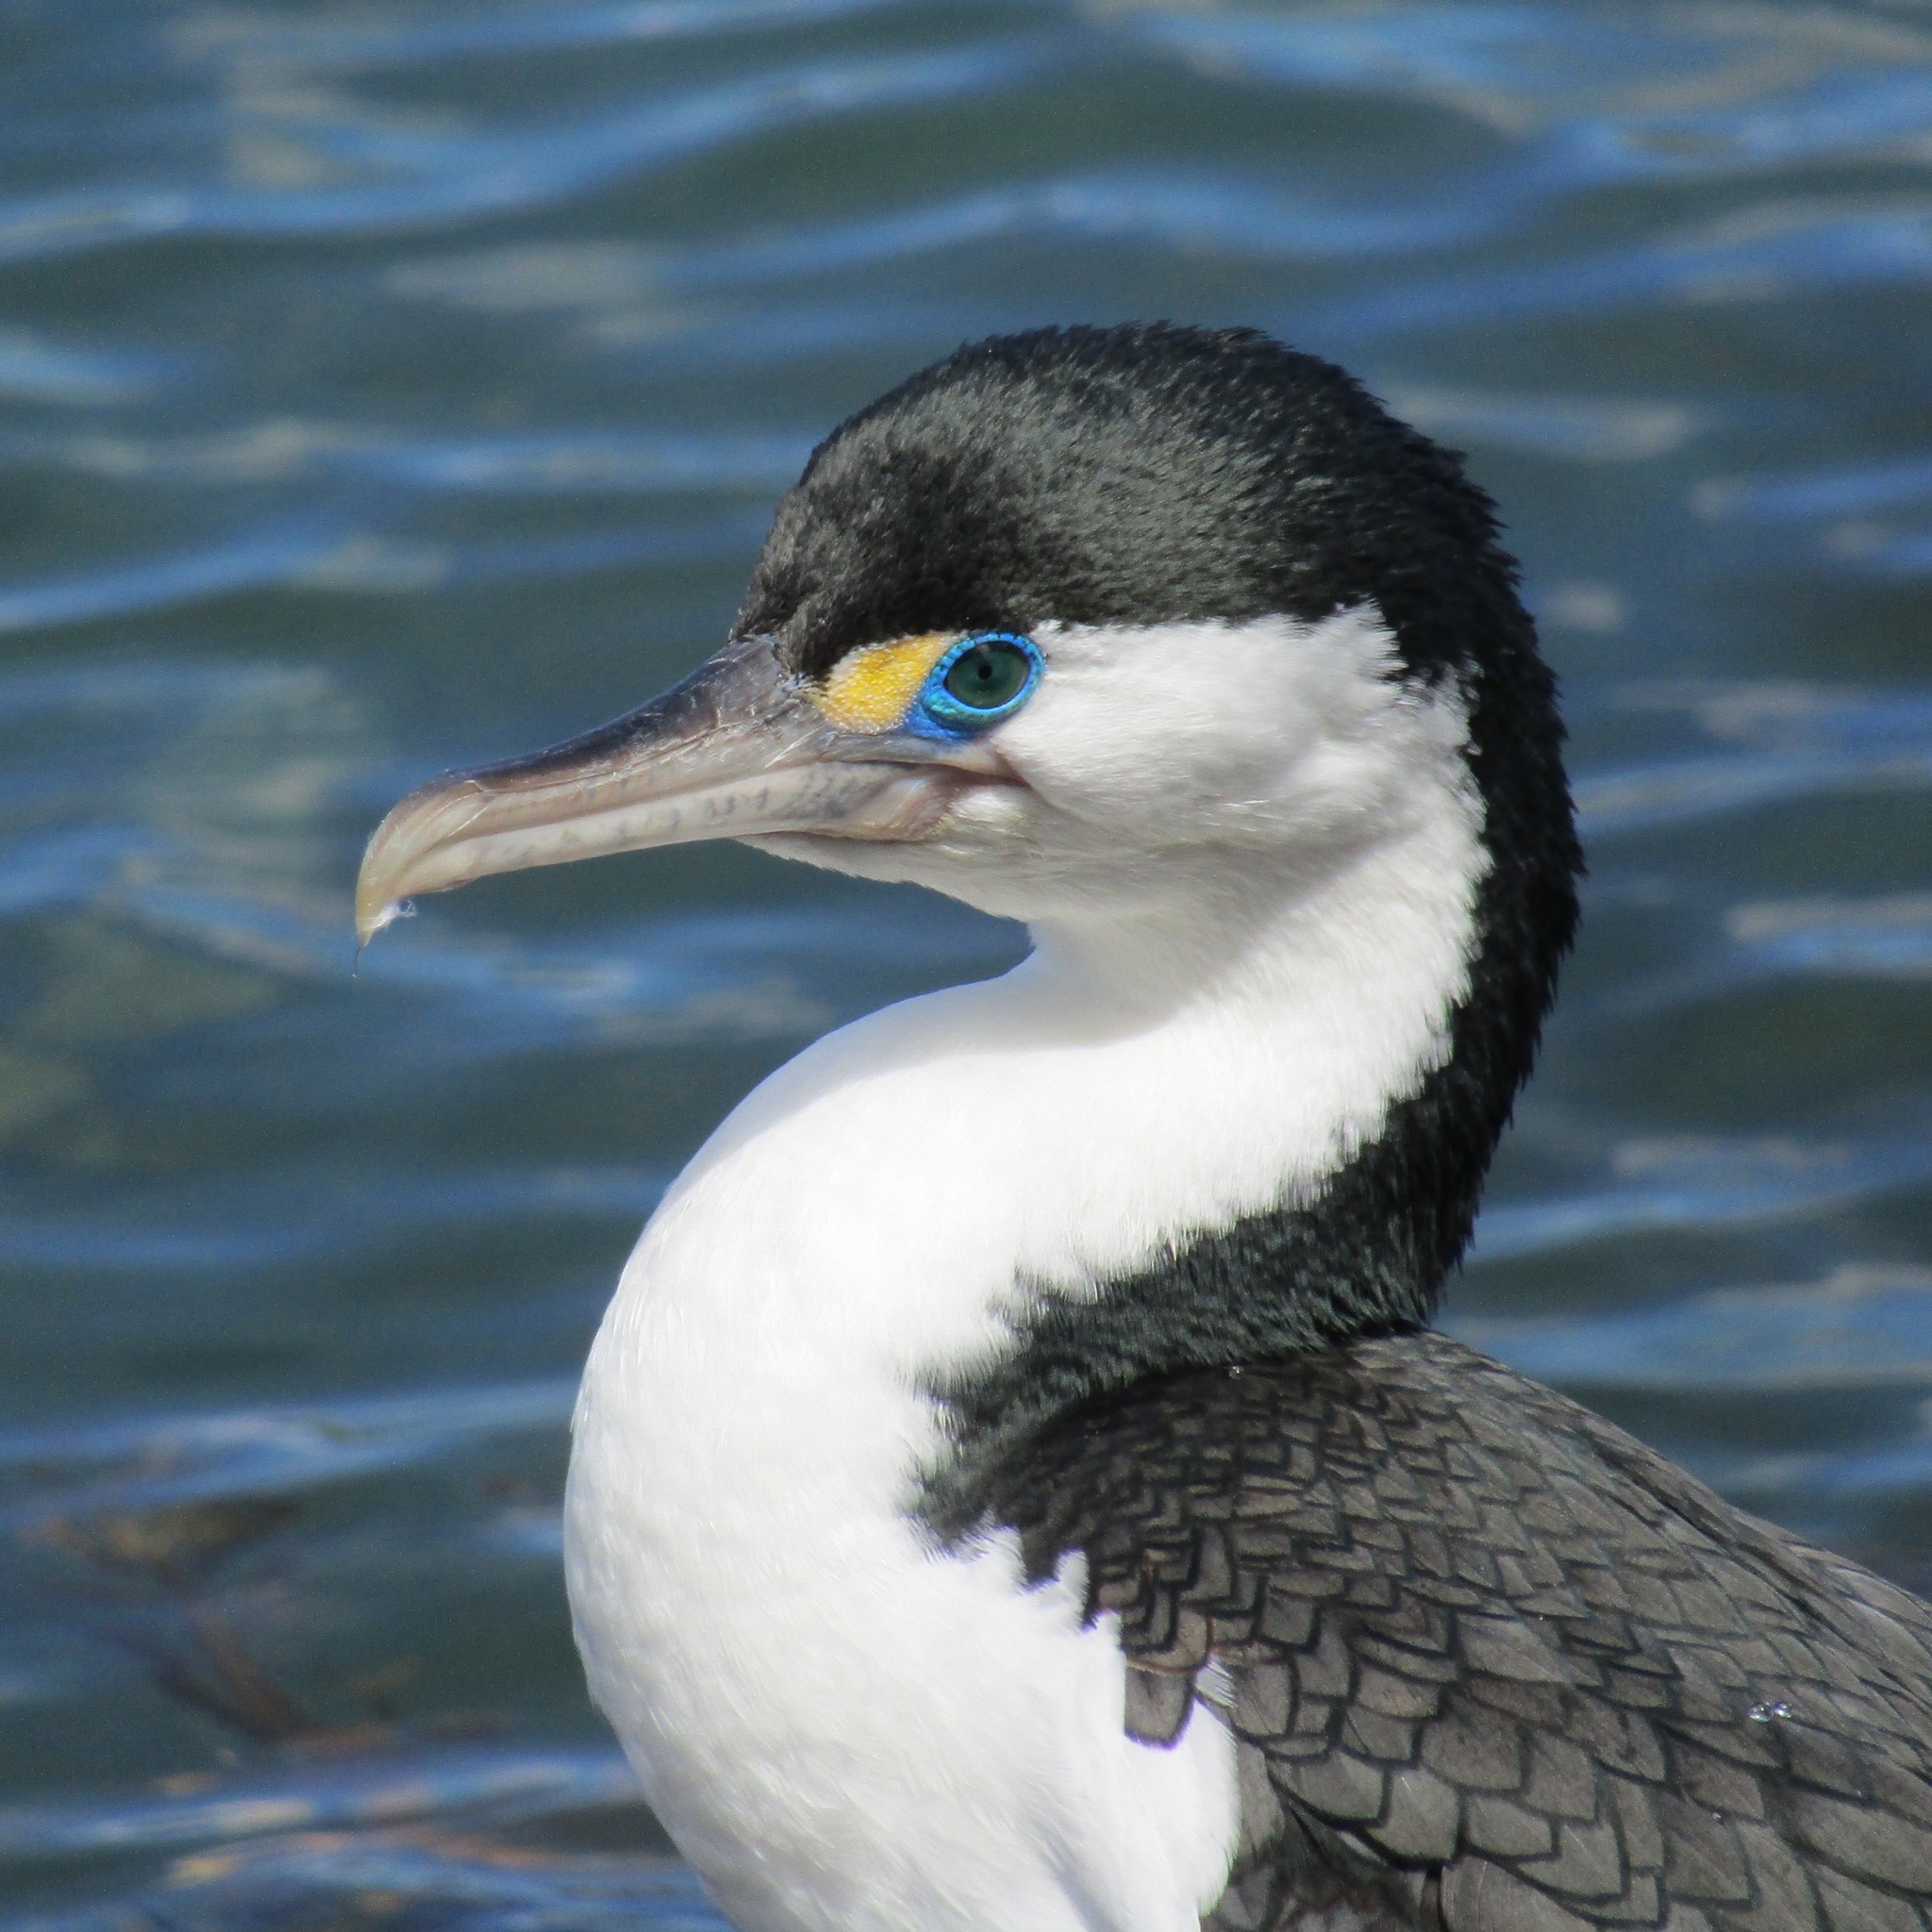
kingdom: Animalia
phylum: Chordata
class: Aves
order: Suliformes
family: Phalacrocoracidae
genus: Phalacrocorax
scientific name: Phalacrocorax varius
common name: Pied cormorant
